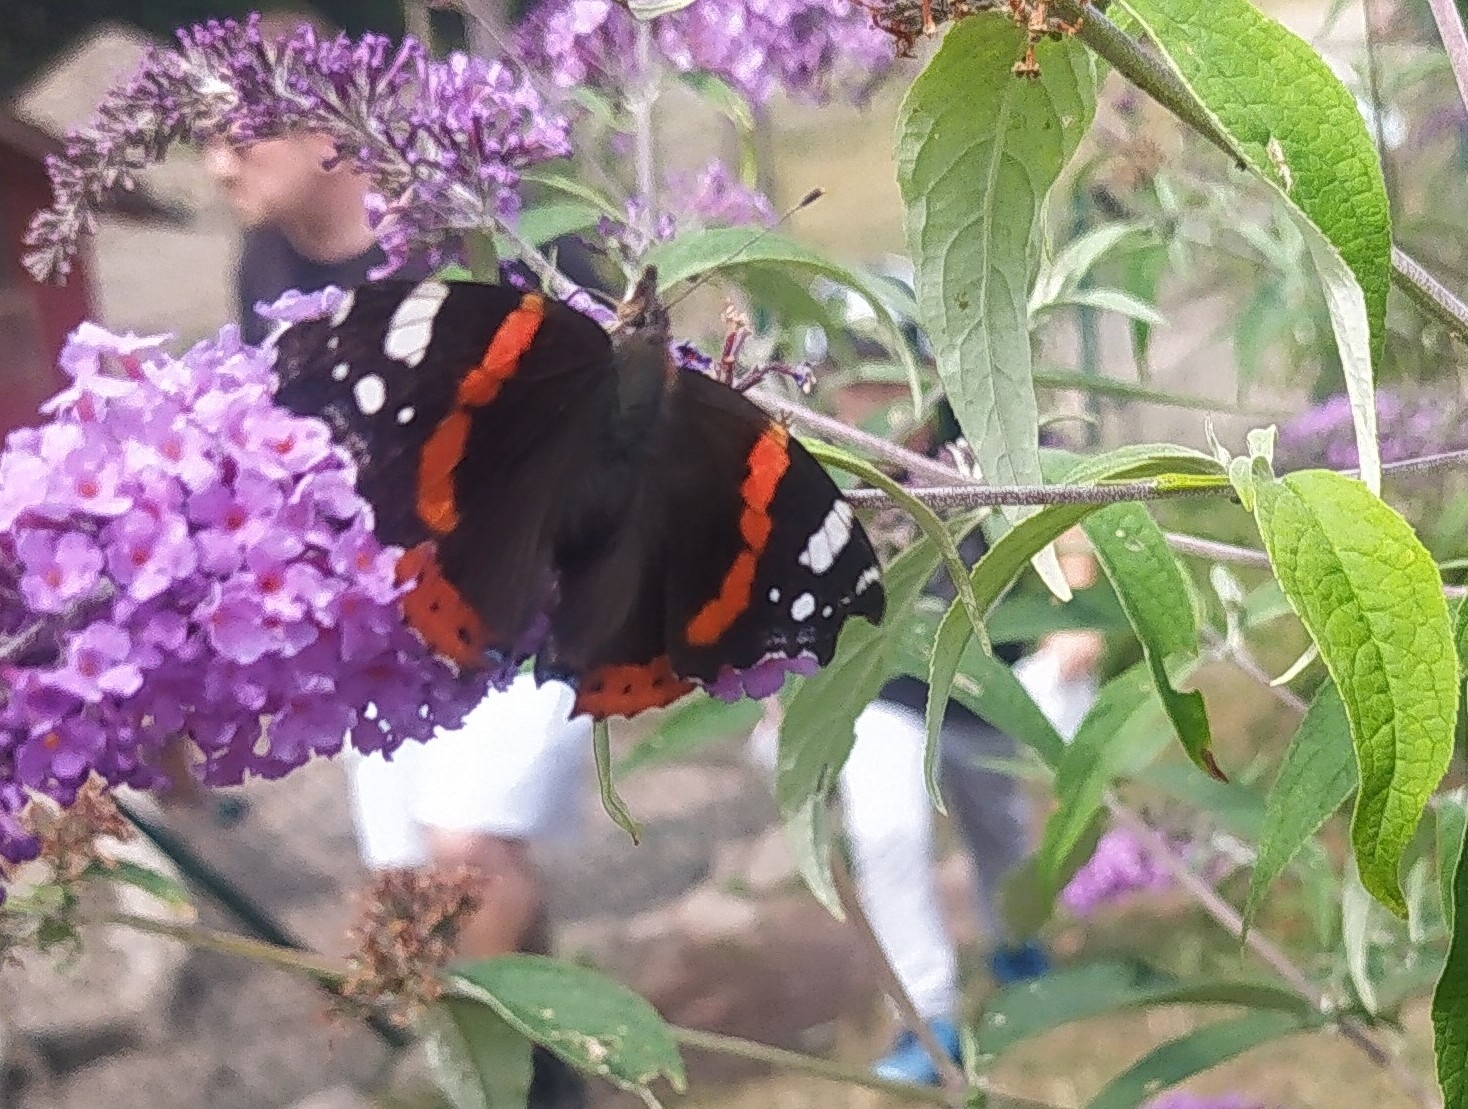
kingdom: Animalia
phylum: Arthropoda
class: Insecta
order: Lepidoptera
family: Nymphalidae
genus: Vanessa
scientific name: Vanessa atalanta
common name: Red admiral
